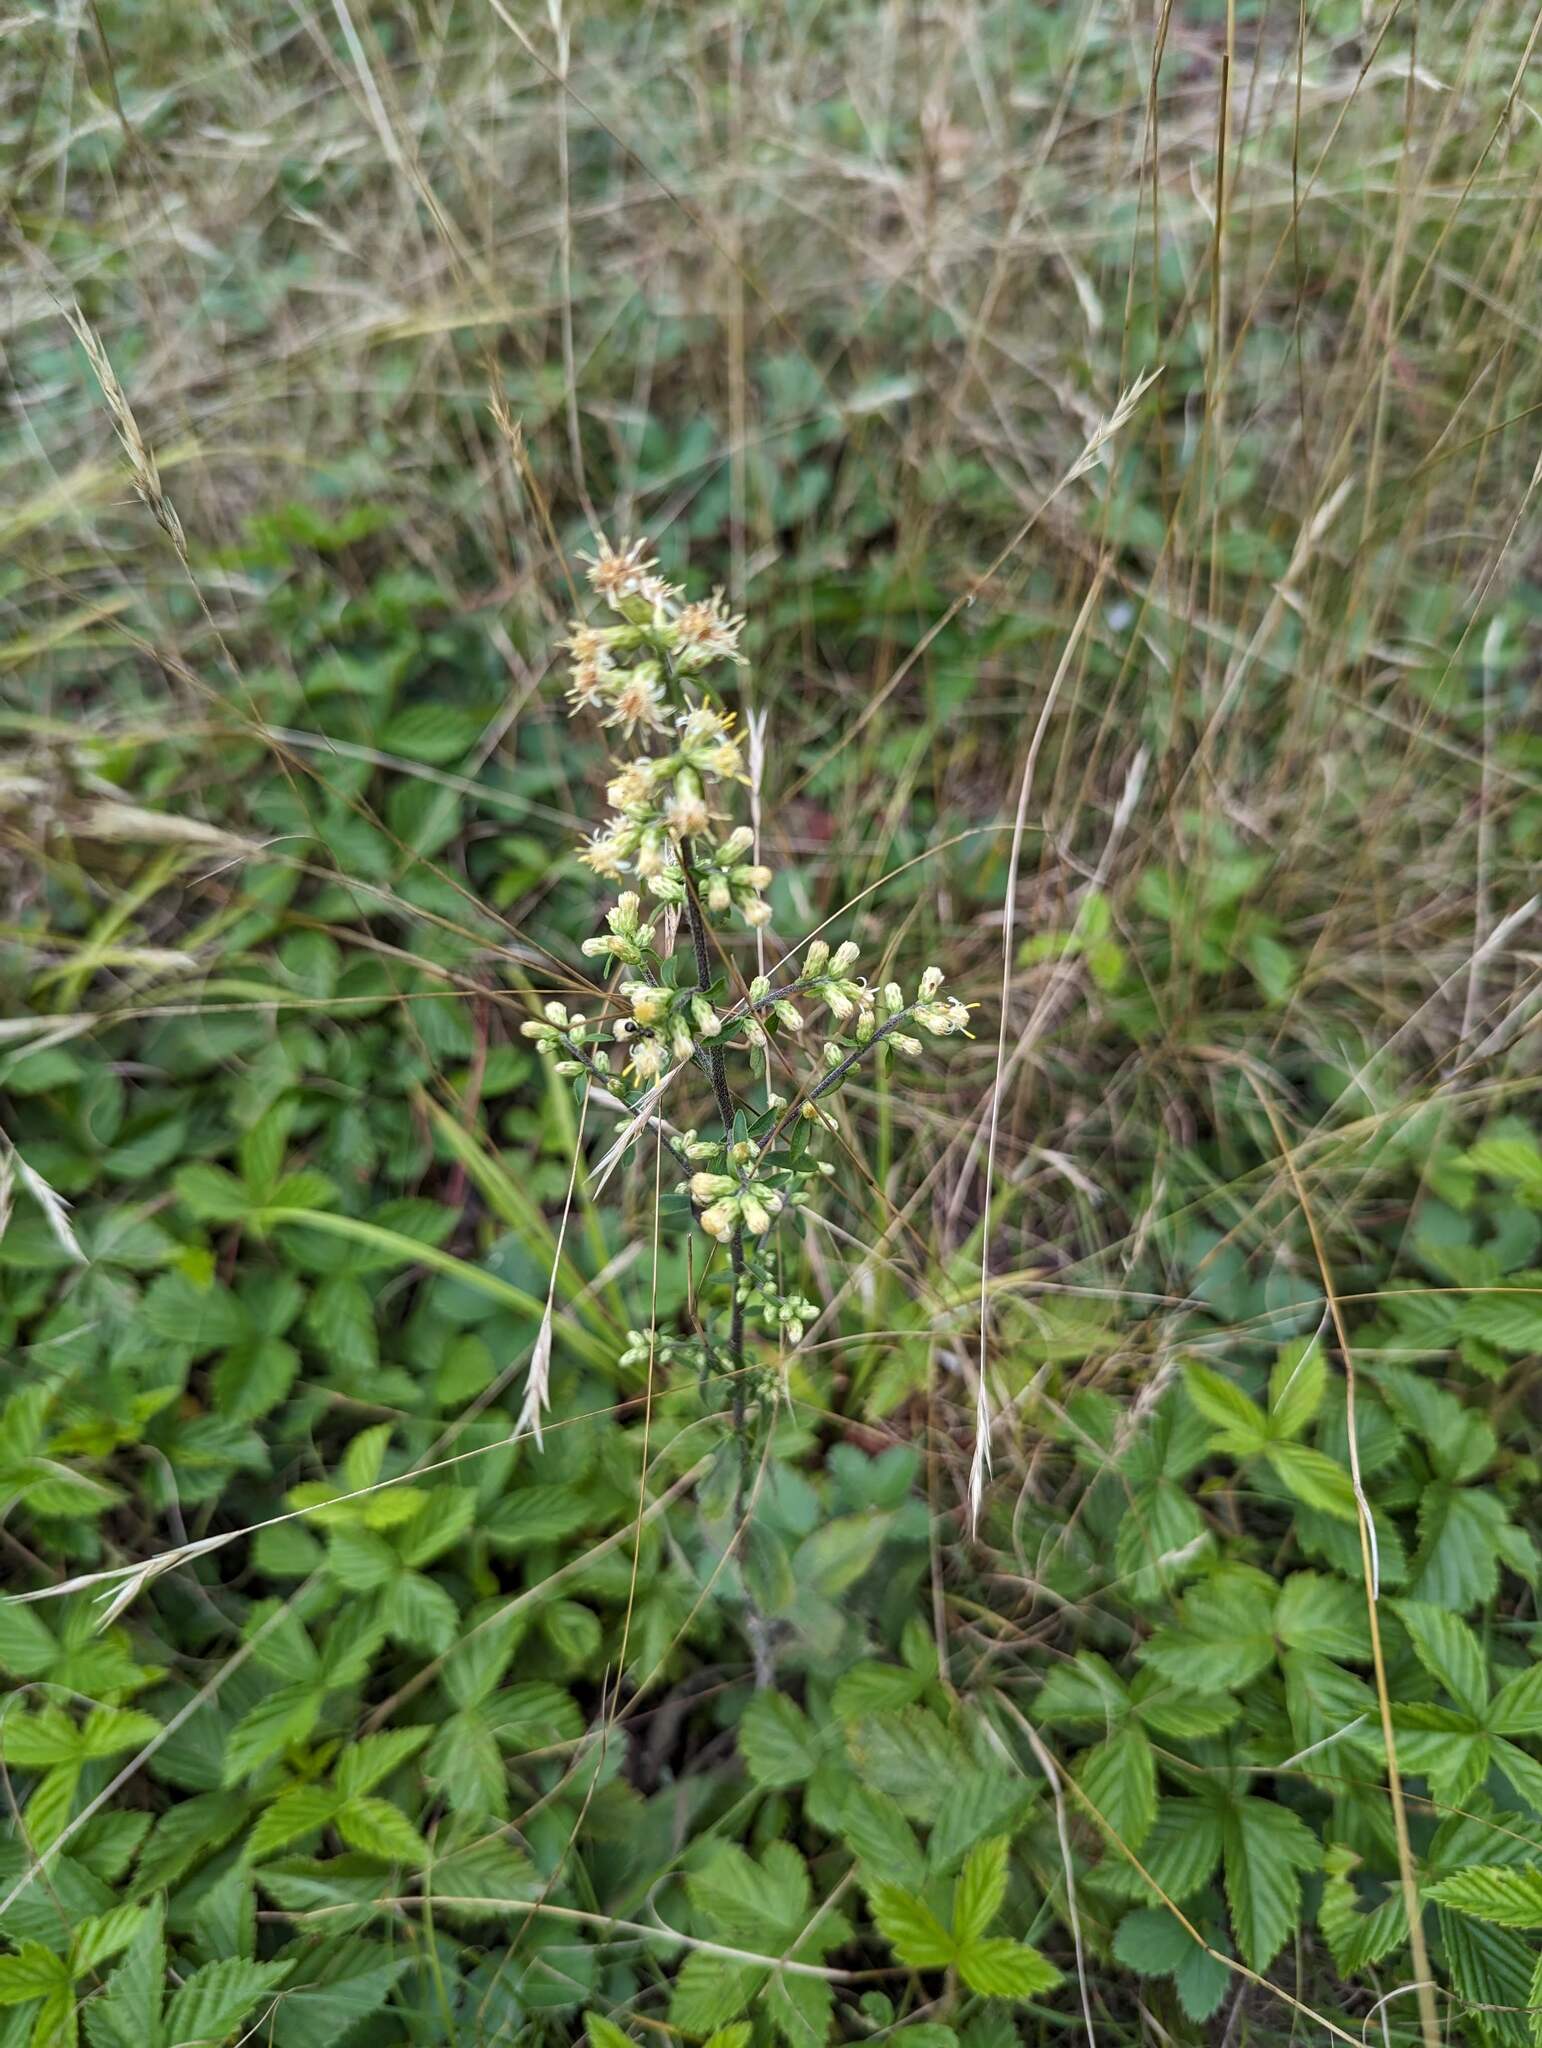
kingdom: Plantae
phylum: Tracheophyta
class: Magnoliopsida
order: Asterales
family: Asteraceae
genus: Solidago
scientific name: Solidago bicolor
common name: Silverrod
